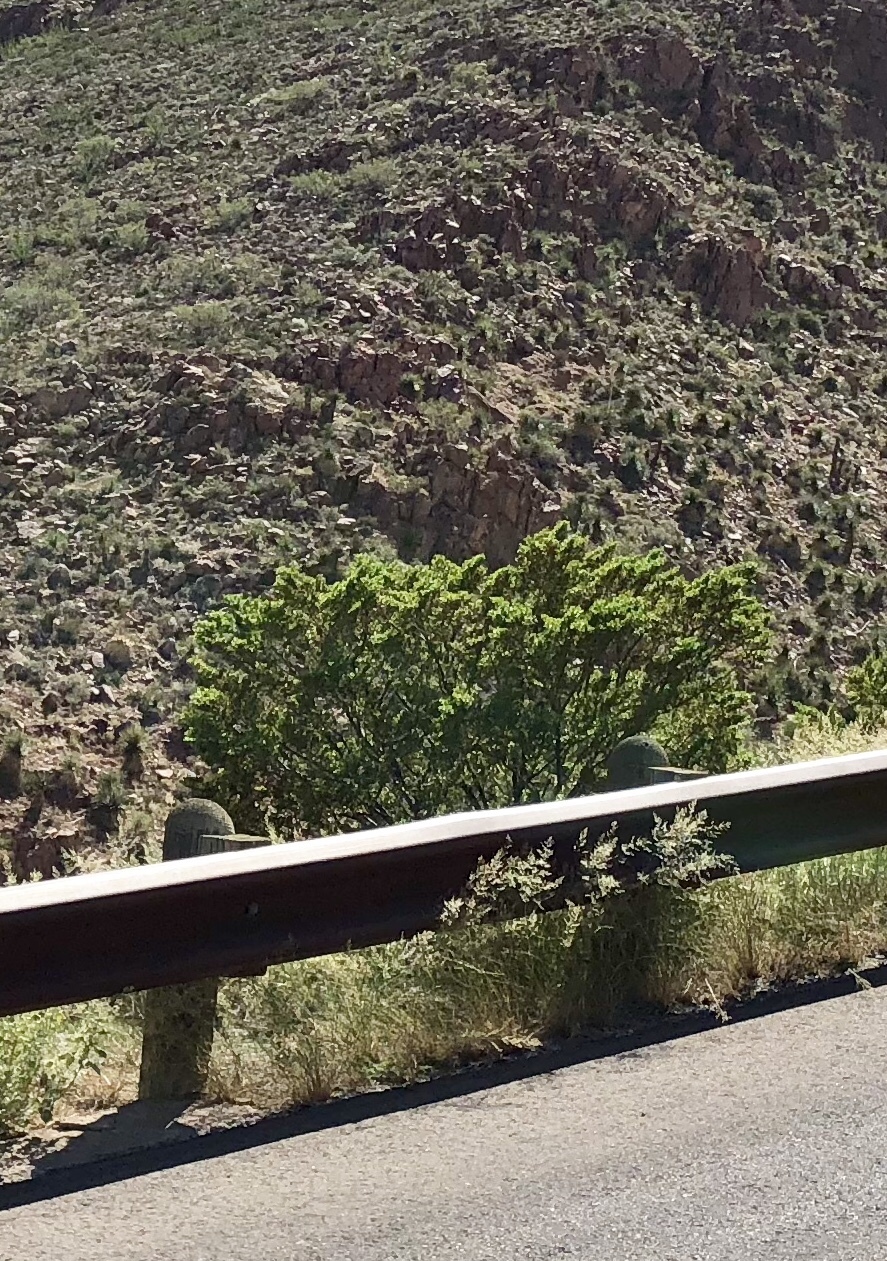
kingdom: Plantae
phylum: Tracheophyta
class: Magnoliopsida
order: Zygophyllales
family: Zygophyllaceae
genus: Larrea
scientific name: Larrea tridentata
